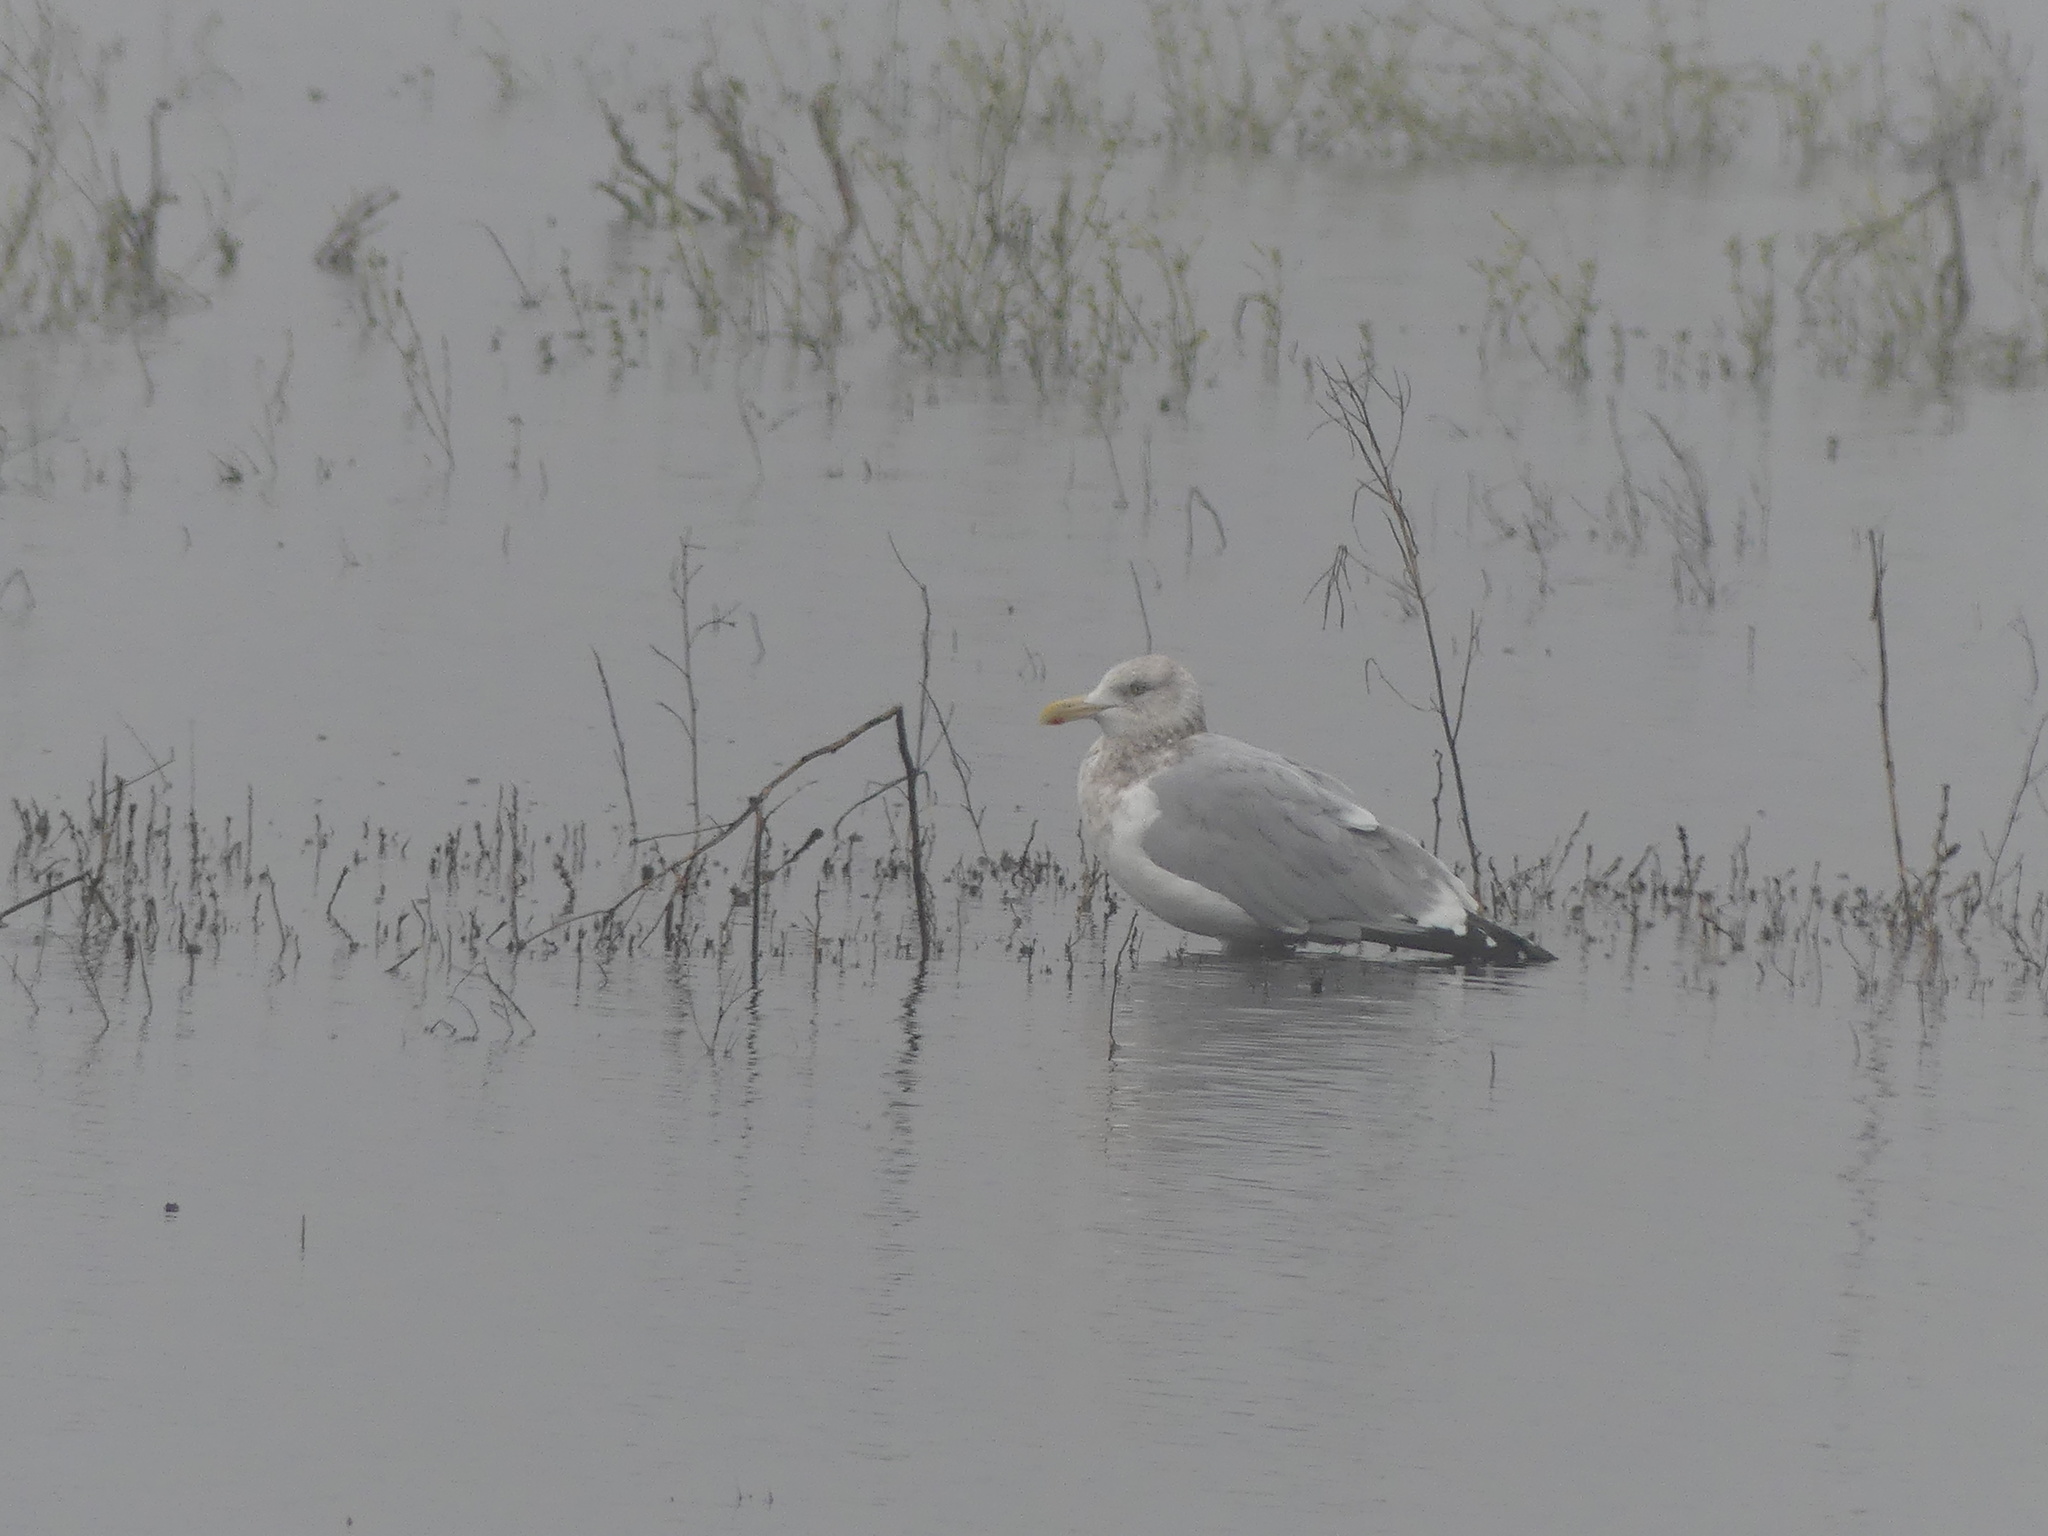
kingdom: Animalia
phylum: Chordata
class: Aves
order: Charadriiformes
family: Laridae
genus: Larus
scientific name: Larus argentatus
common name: Herring gull
